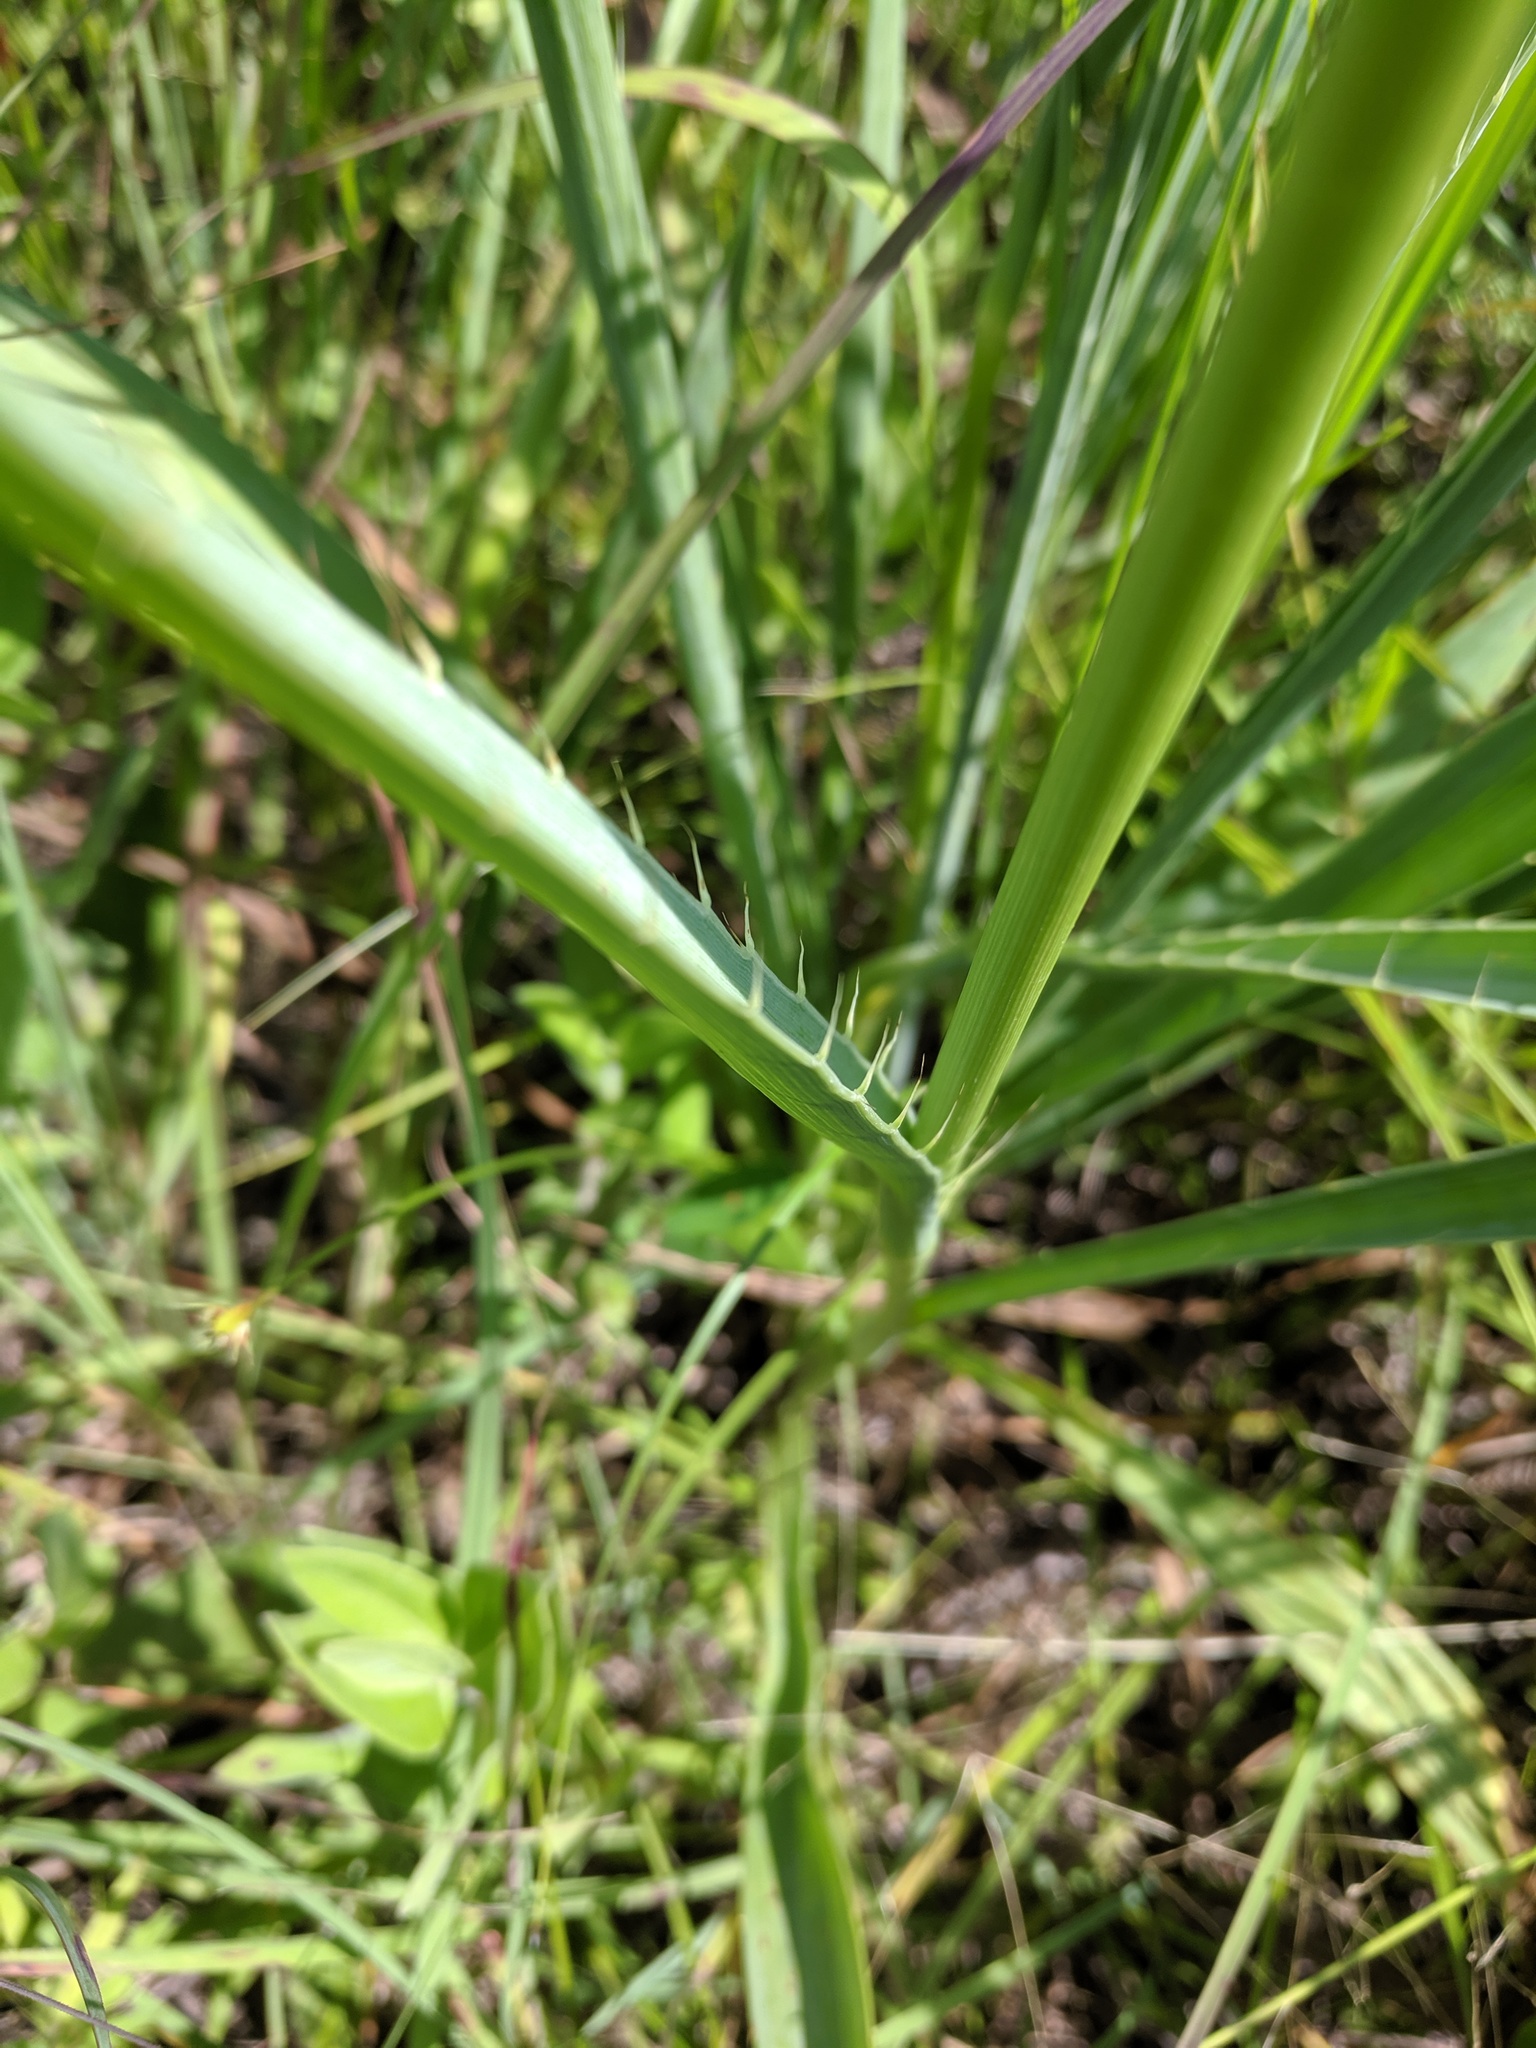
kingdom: Plantae
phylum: Tracheophyta
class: Magnoliopsida
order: Apiales
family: Apiaceae
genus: Eryngium
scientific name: Eryngium yuccifolium
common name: Button eryngo
